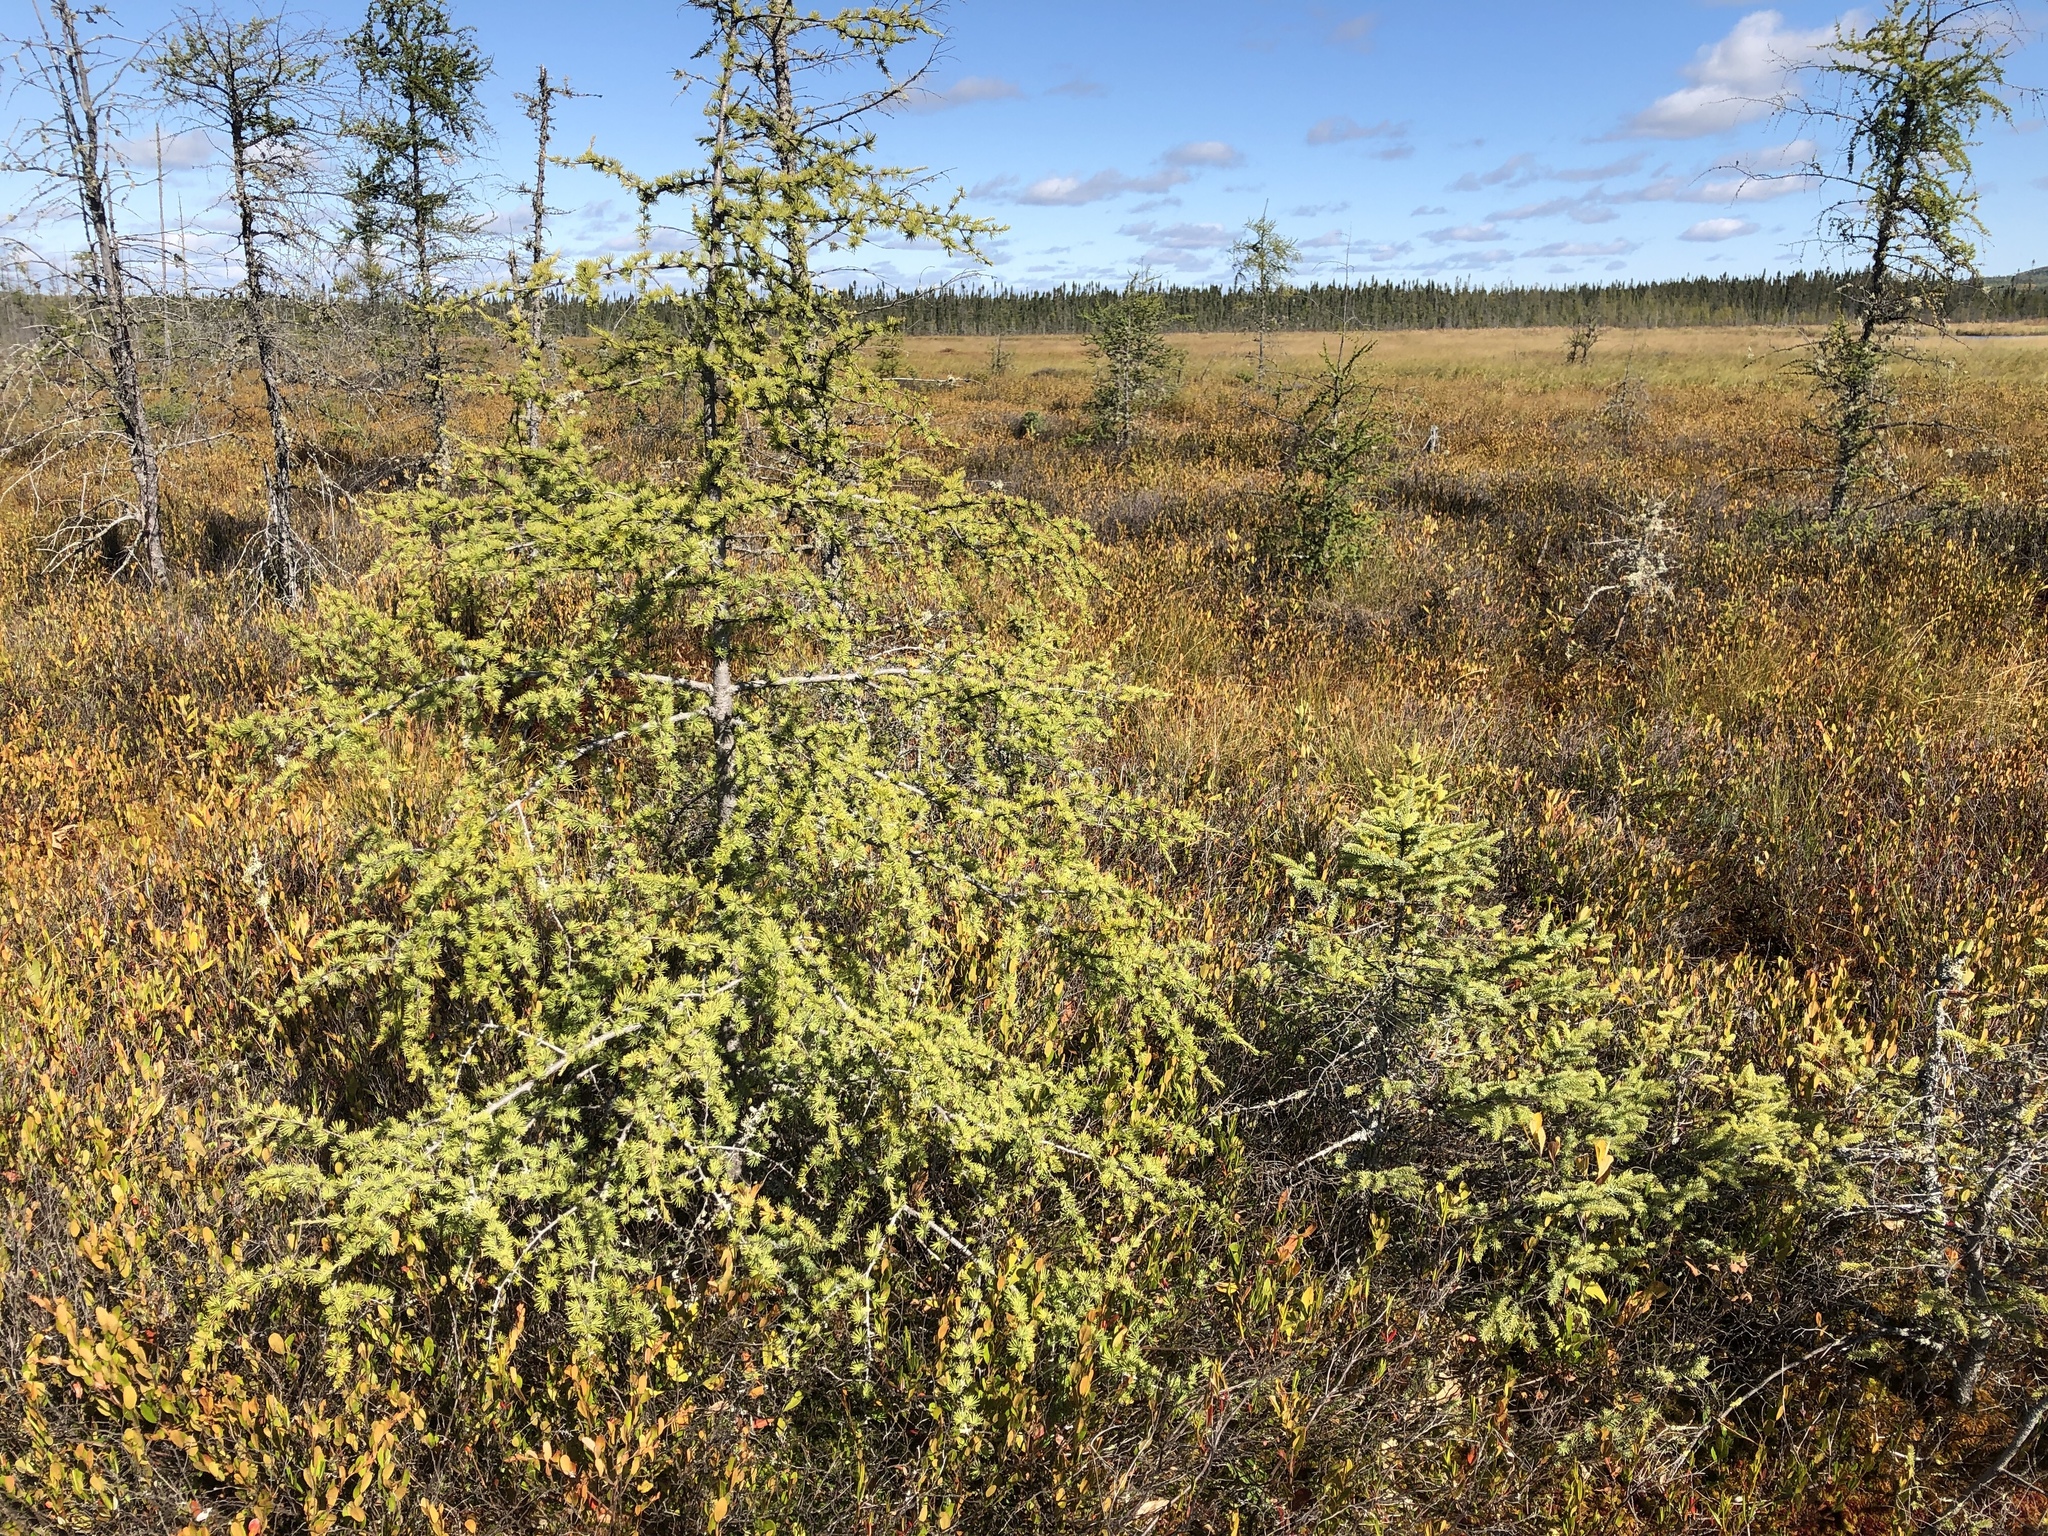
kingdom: Plantae
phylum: Tracheophyta
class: Pinopsida
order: Pinales
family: Pinaceae
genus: Larix
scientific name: Larix laricina
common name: American larch
